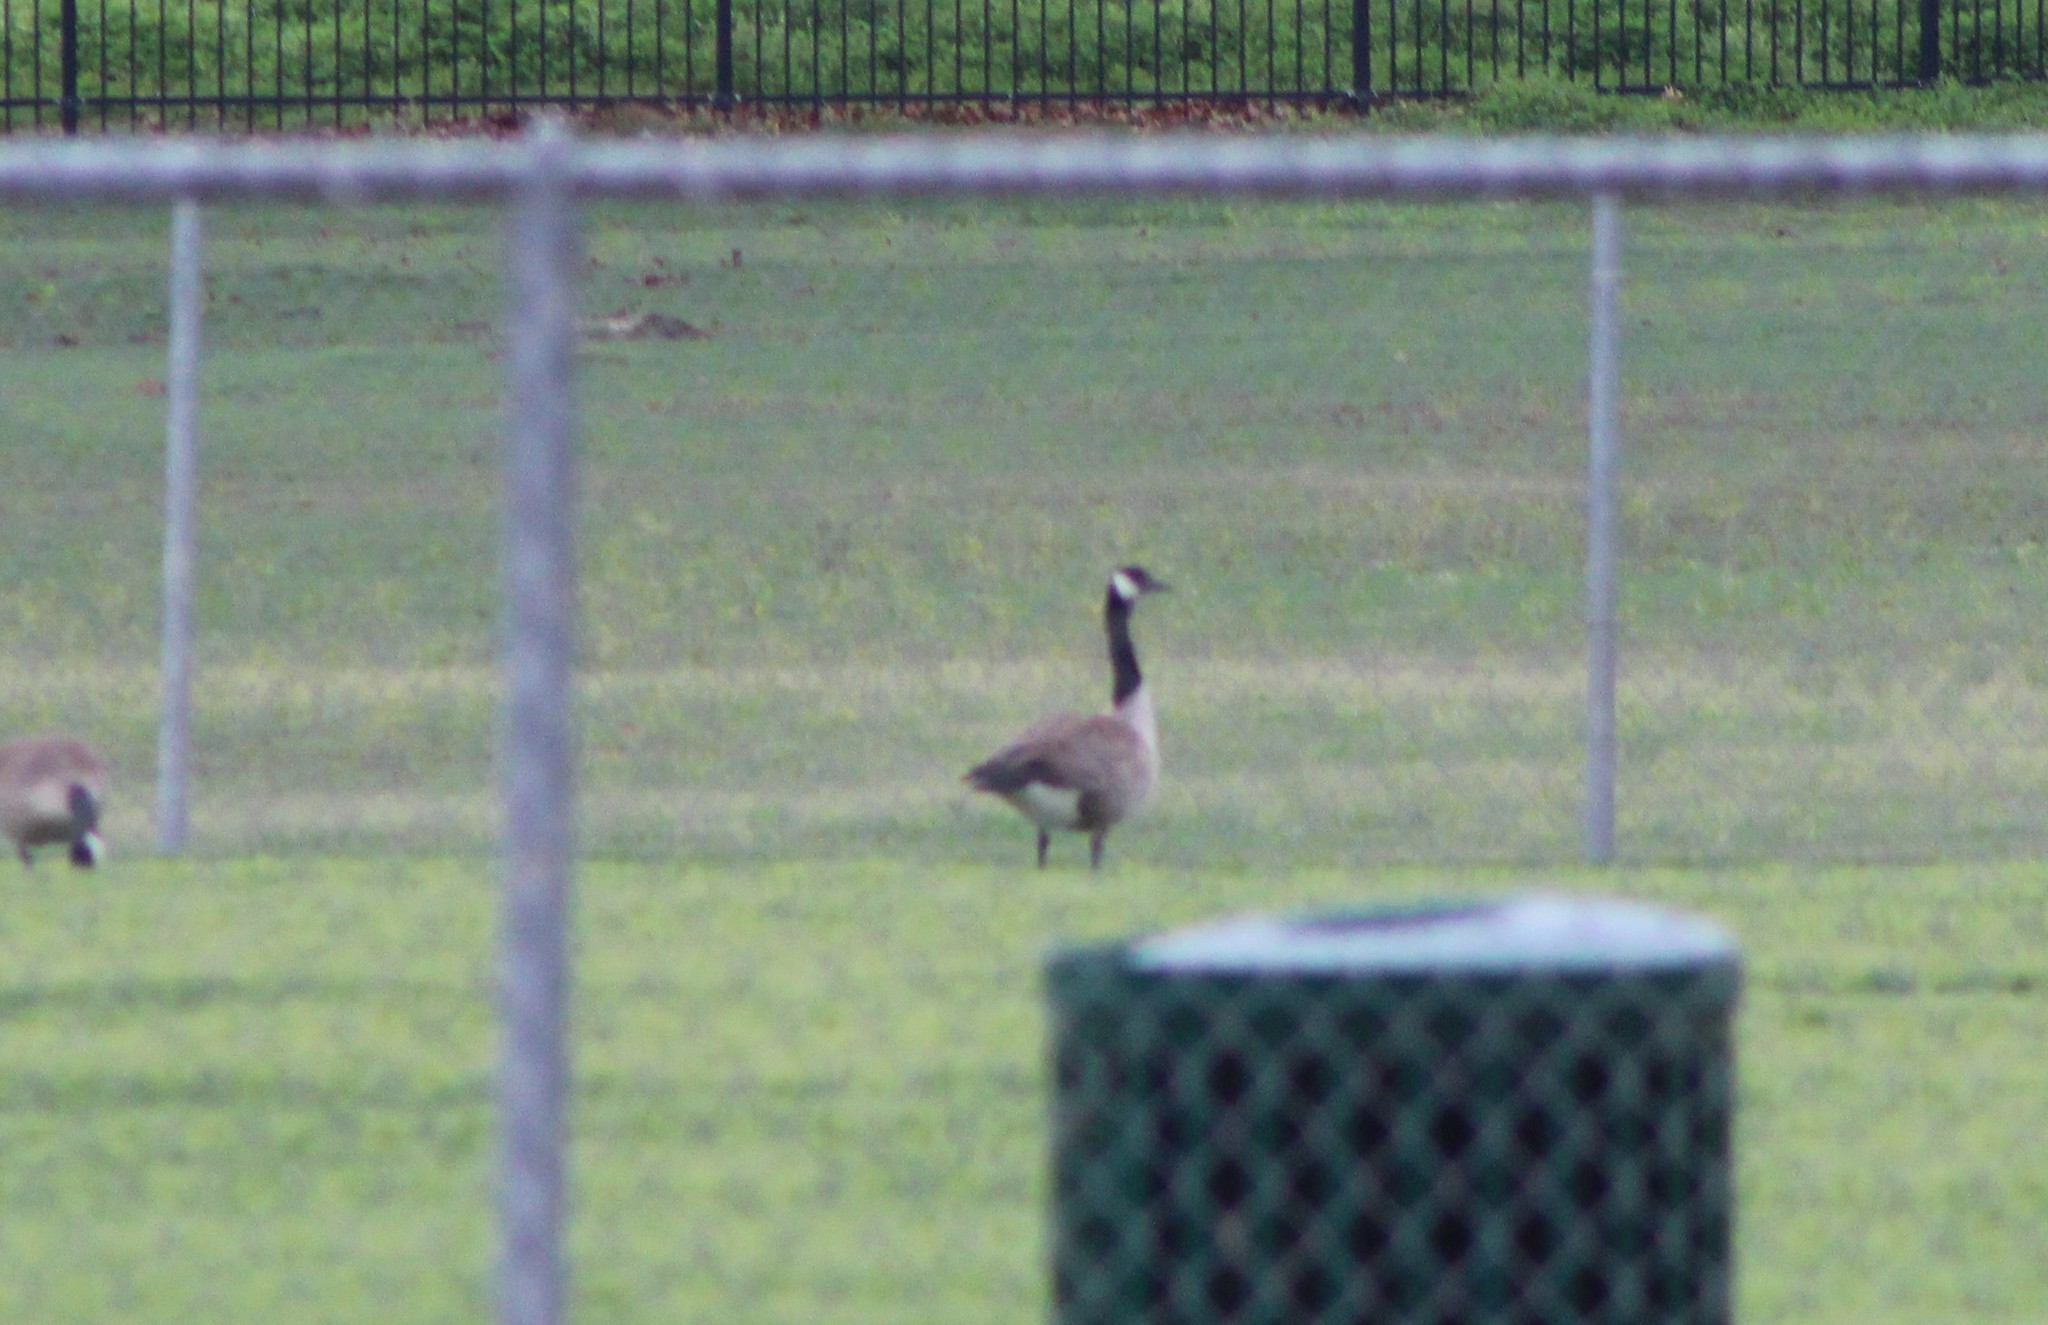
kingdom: Animalia
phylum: Chordata
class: Aves
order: Anseriformes
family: Anatidae
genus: Branta
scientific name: Branta canadensis
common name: Canada goose
